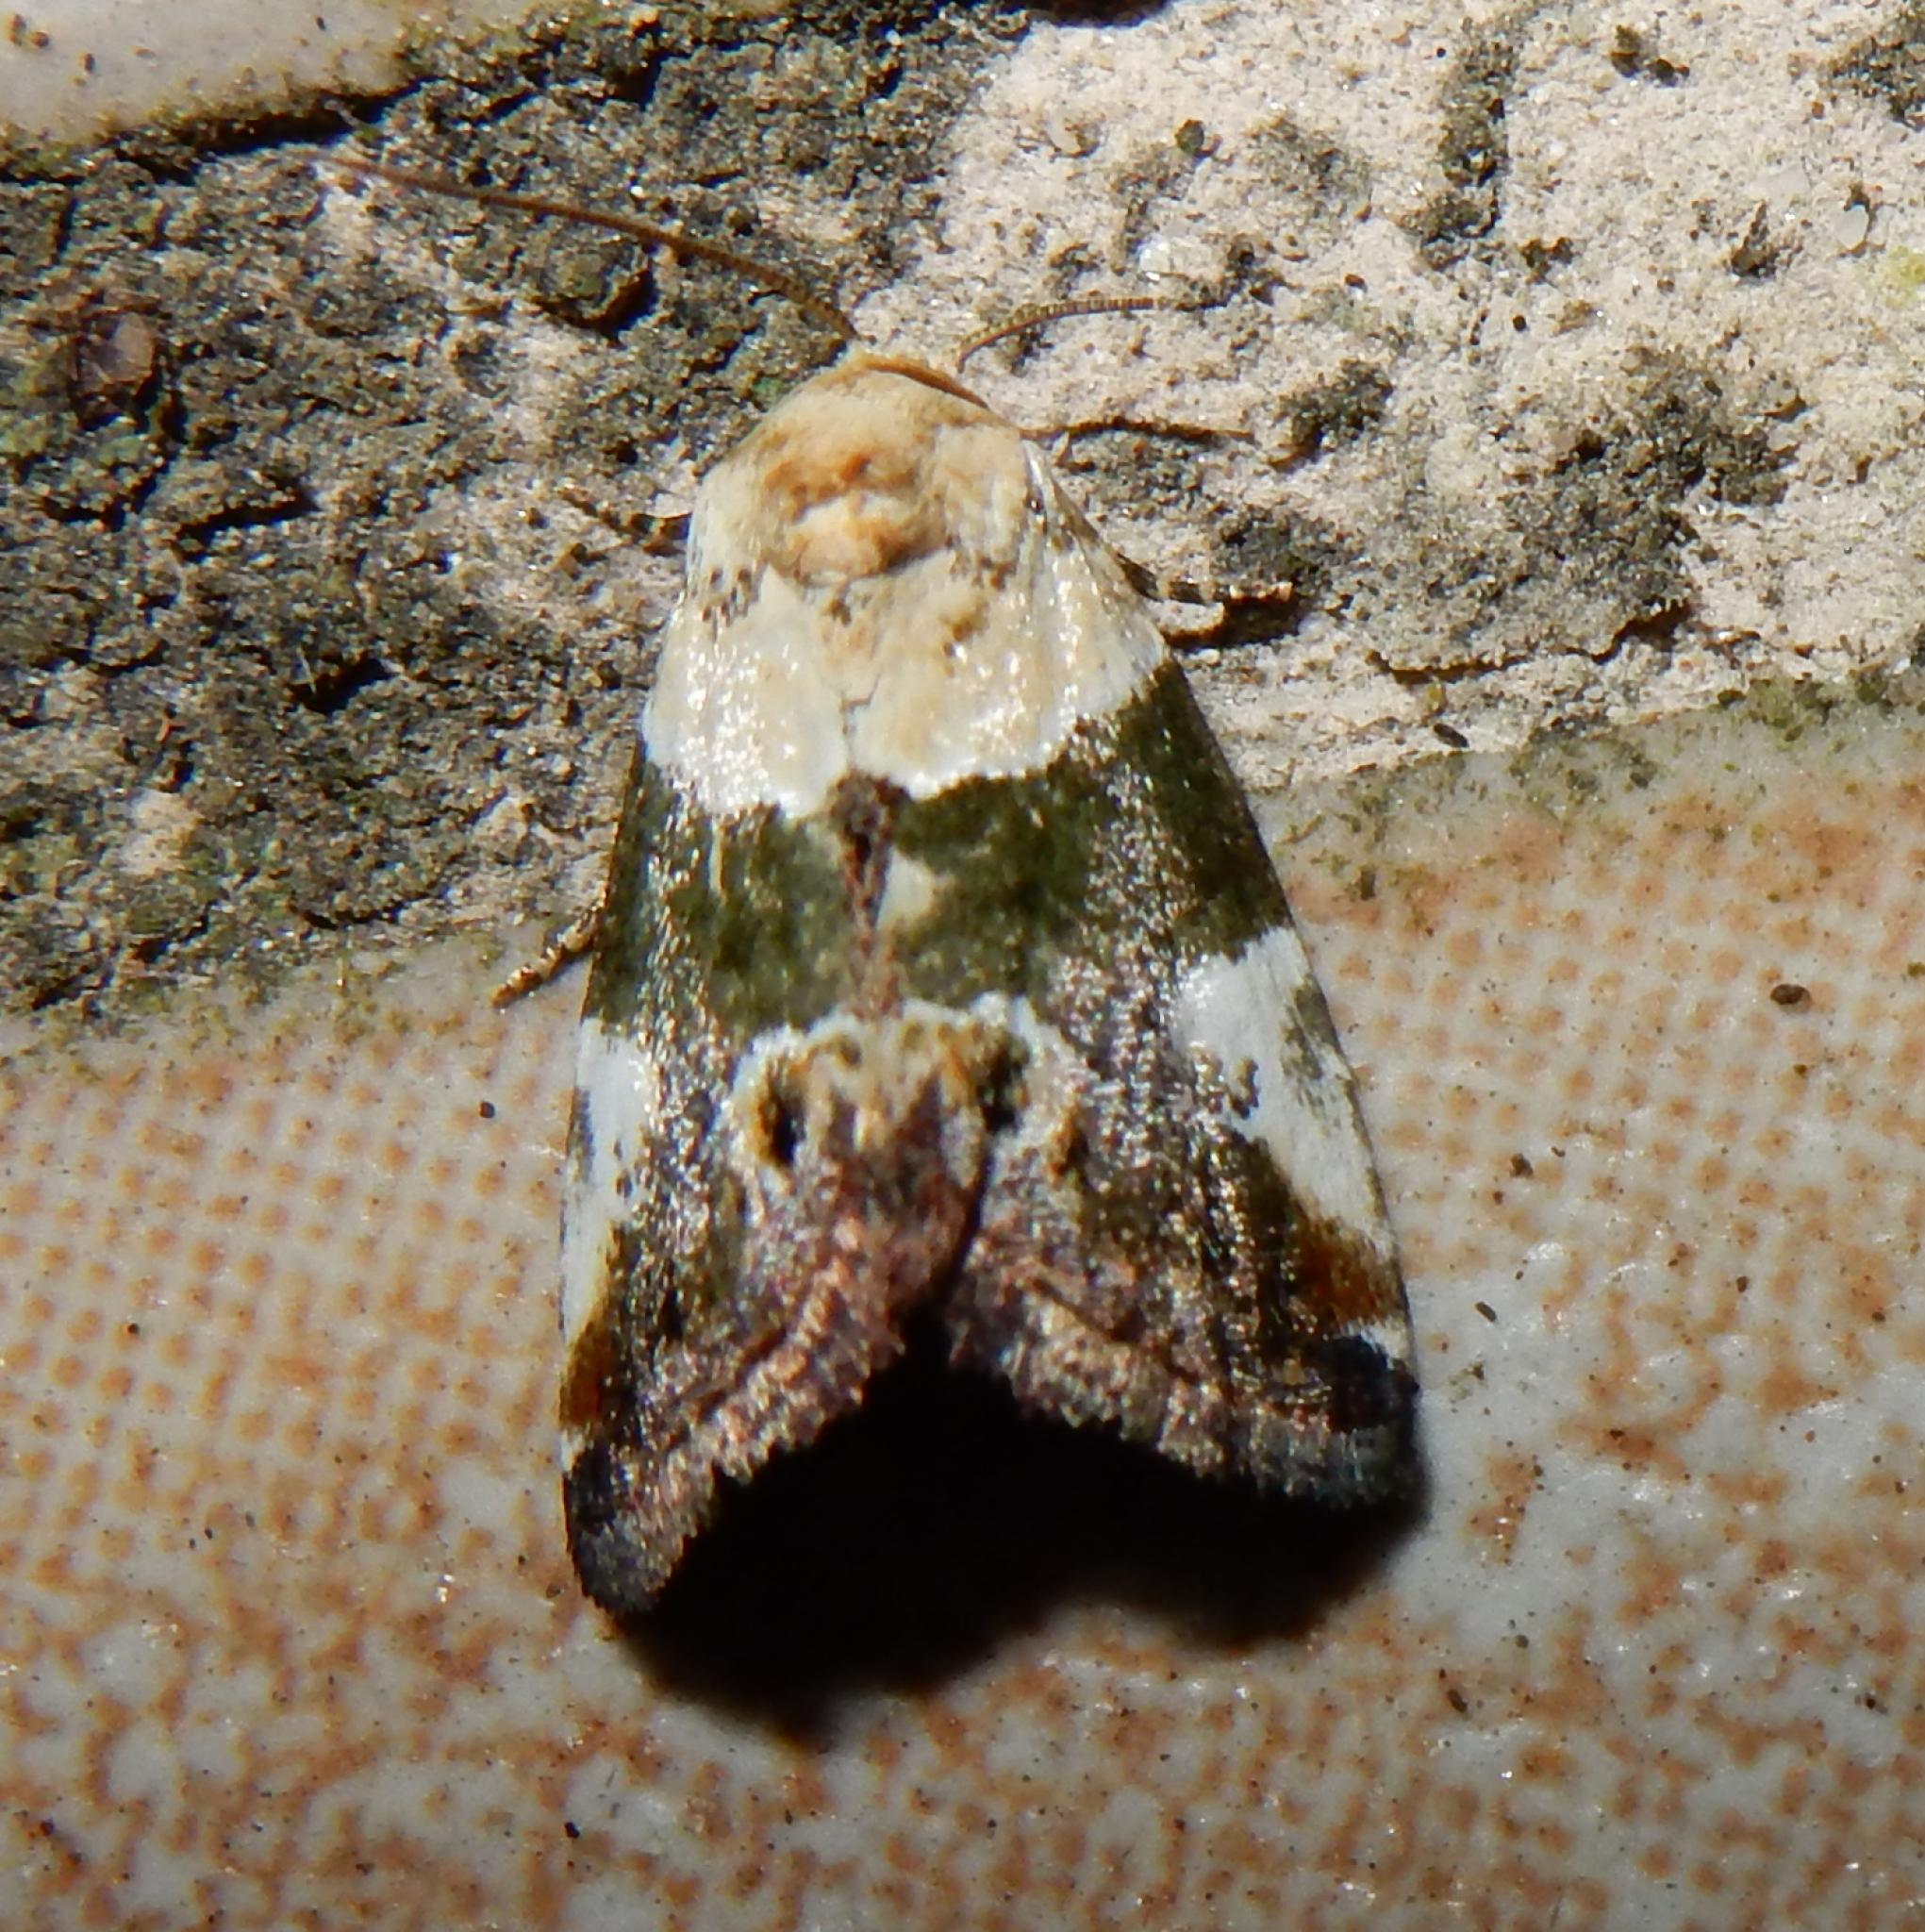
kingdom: Animalia
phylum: Arthropoda
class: Insecta
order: Lepidoptera
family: Noctuidae
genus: Hypercodia
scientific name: Hypercodia wheeleri
